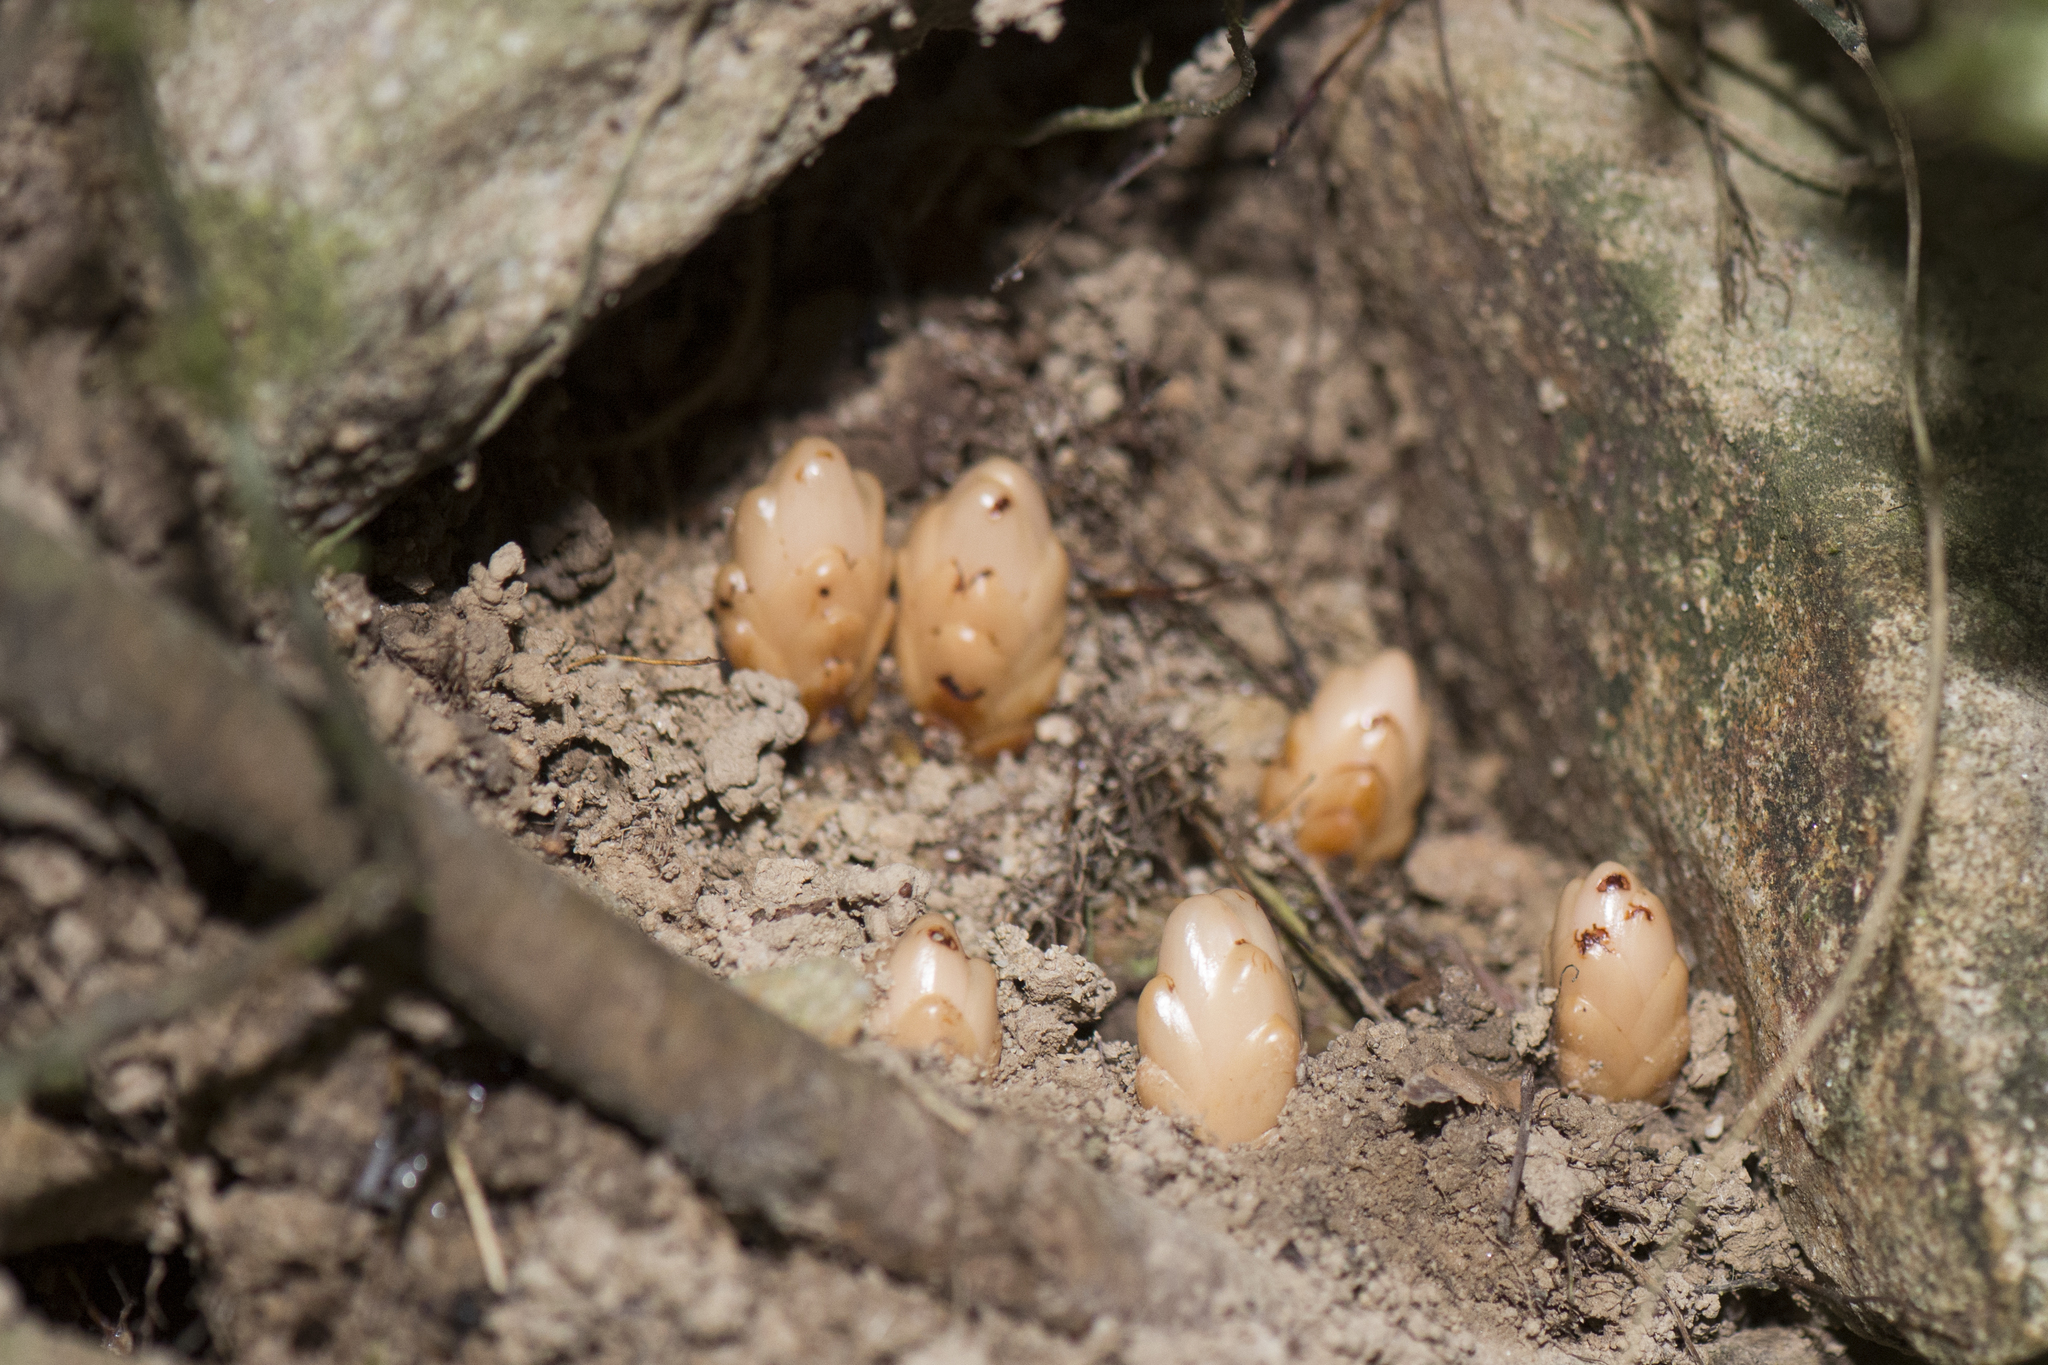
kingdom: Plantae
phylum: Tracheophyta
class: Magnoliopsida
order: Ericales
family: Mitrastemonaceae
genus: Mitrastemon
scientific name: Mitrastemon yamamotoi
